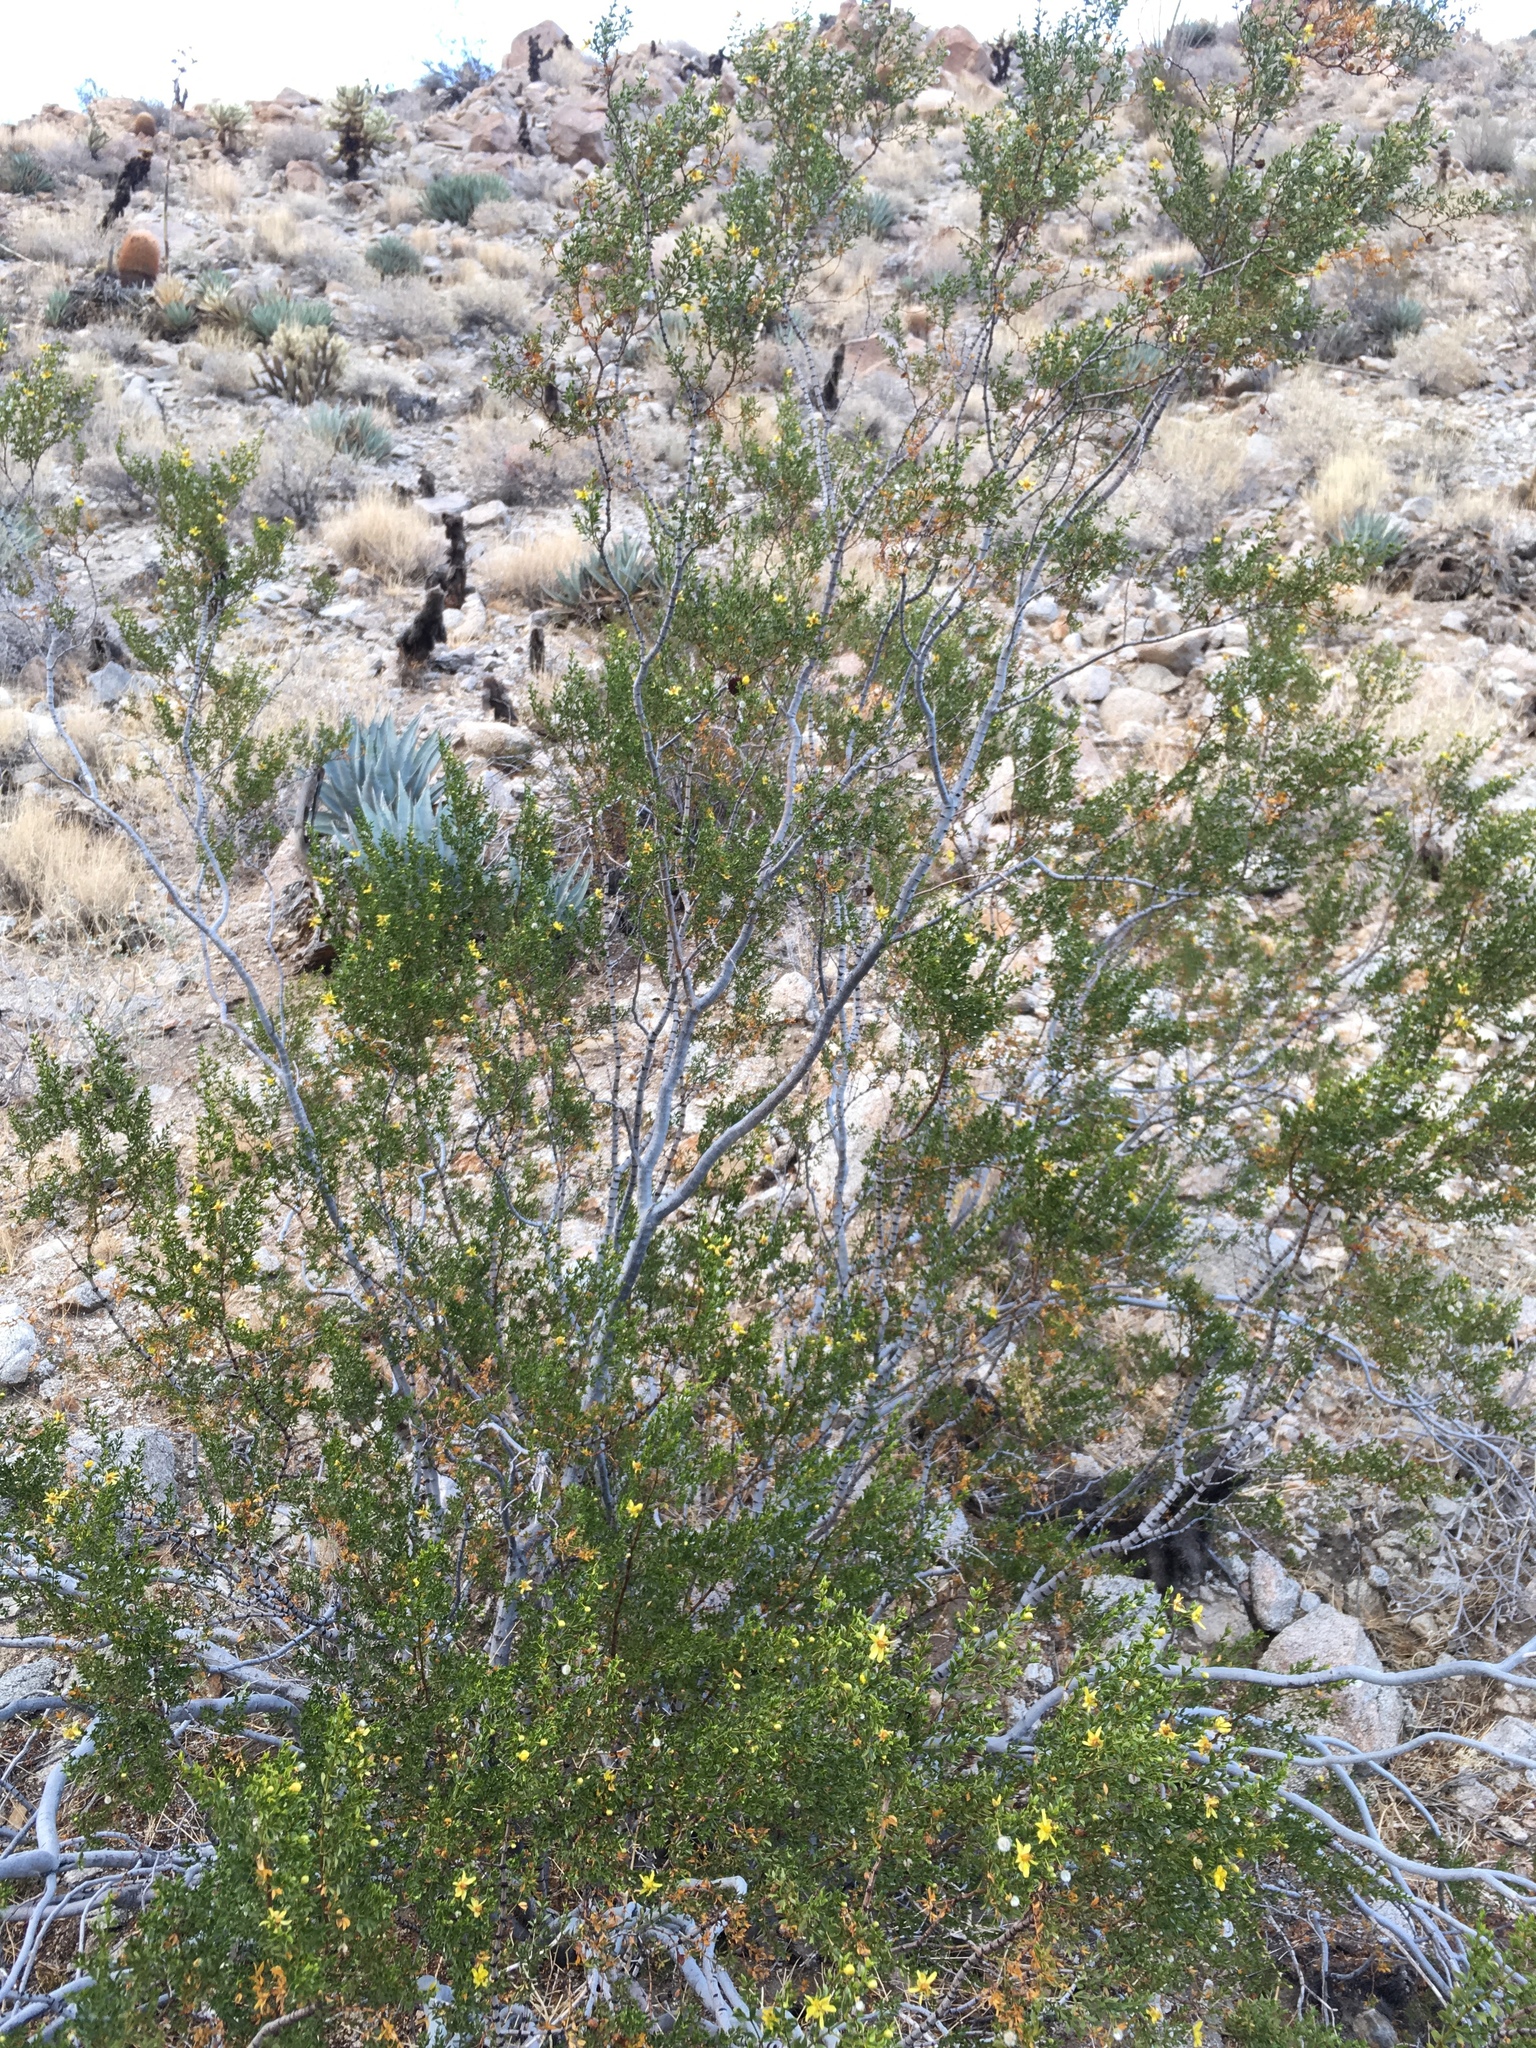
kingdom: Plantae
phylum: Tracheophyta
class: Magnoliopsida
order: Zygophyllales
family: Zygophyllaceae
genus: Larrea
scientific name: Larrea tridentata
